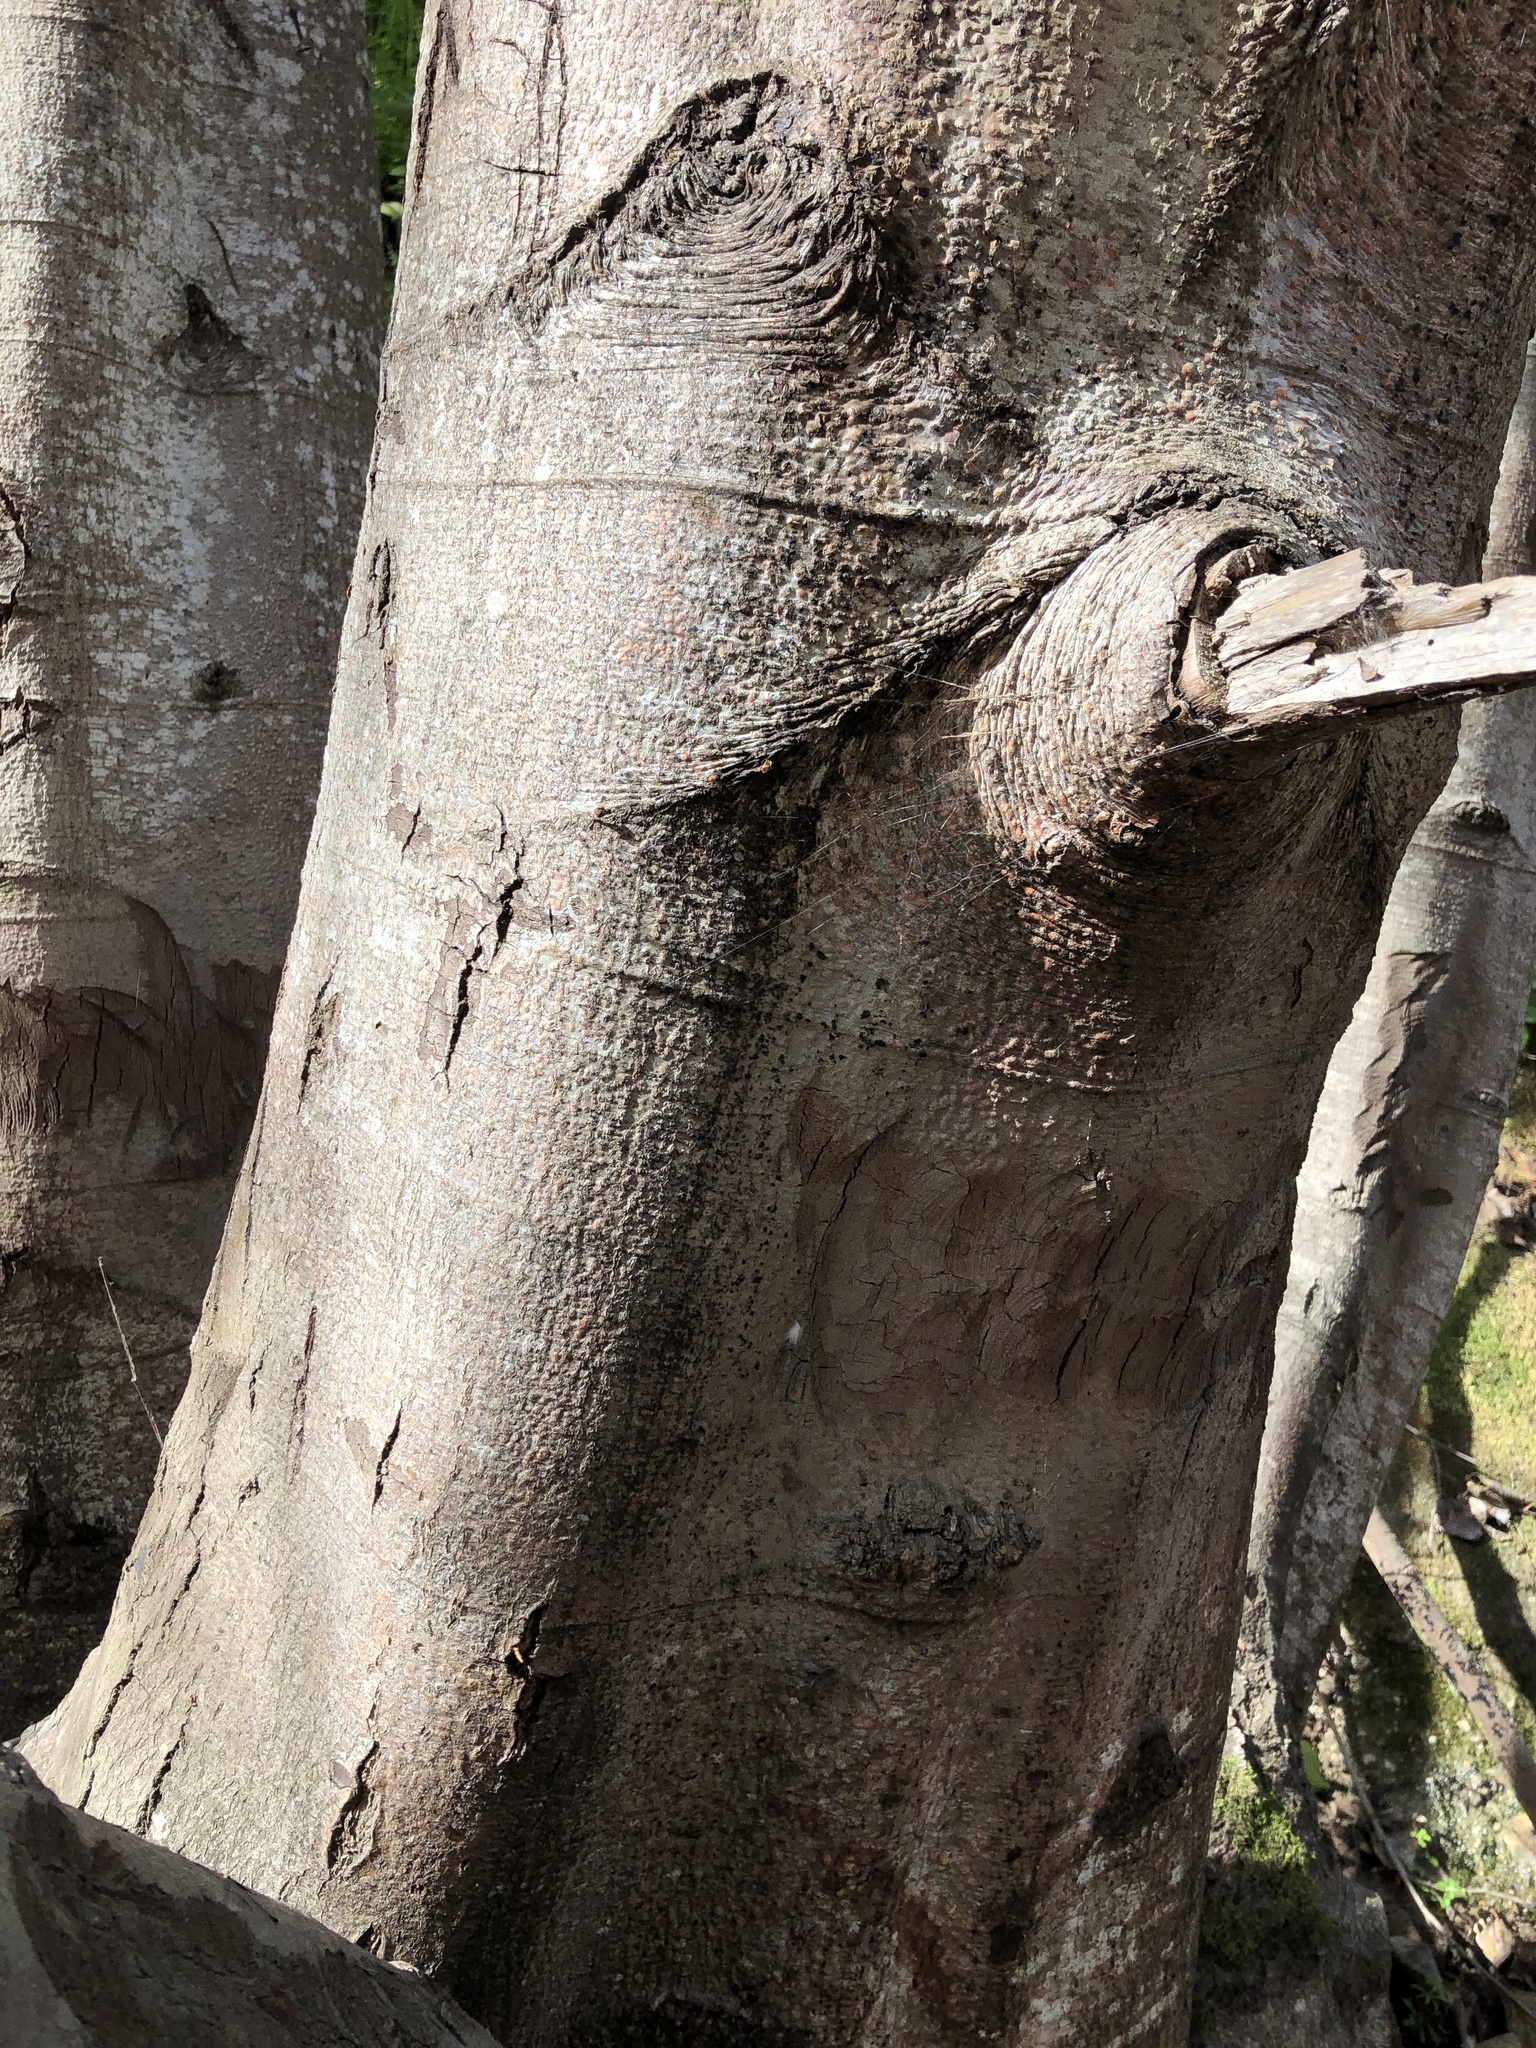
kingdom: Plantae
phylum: Tracheophyta
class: Magnoliopsida
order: Fagales
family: Betulaceae
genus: Alnus
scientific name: Alnus rhombifolia
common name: California alder
